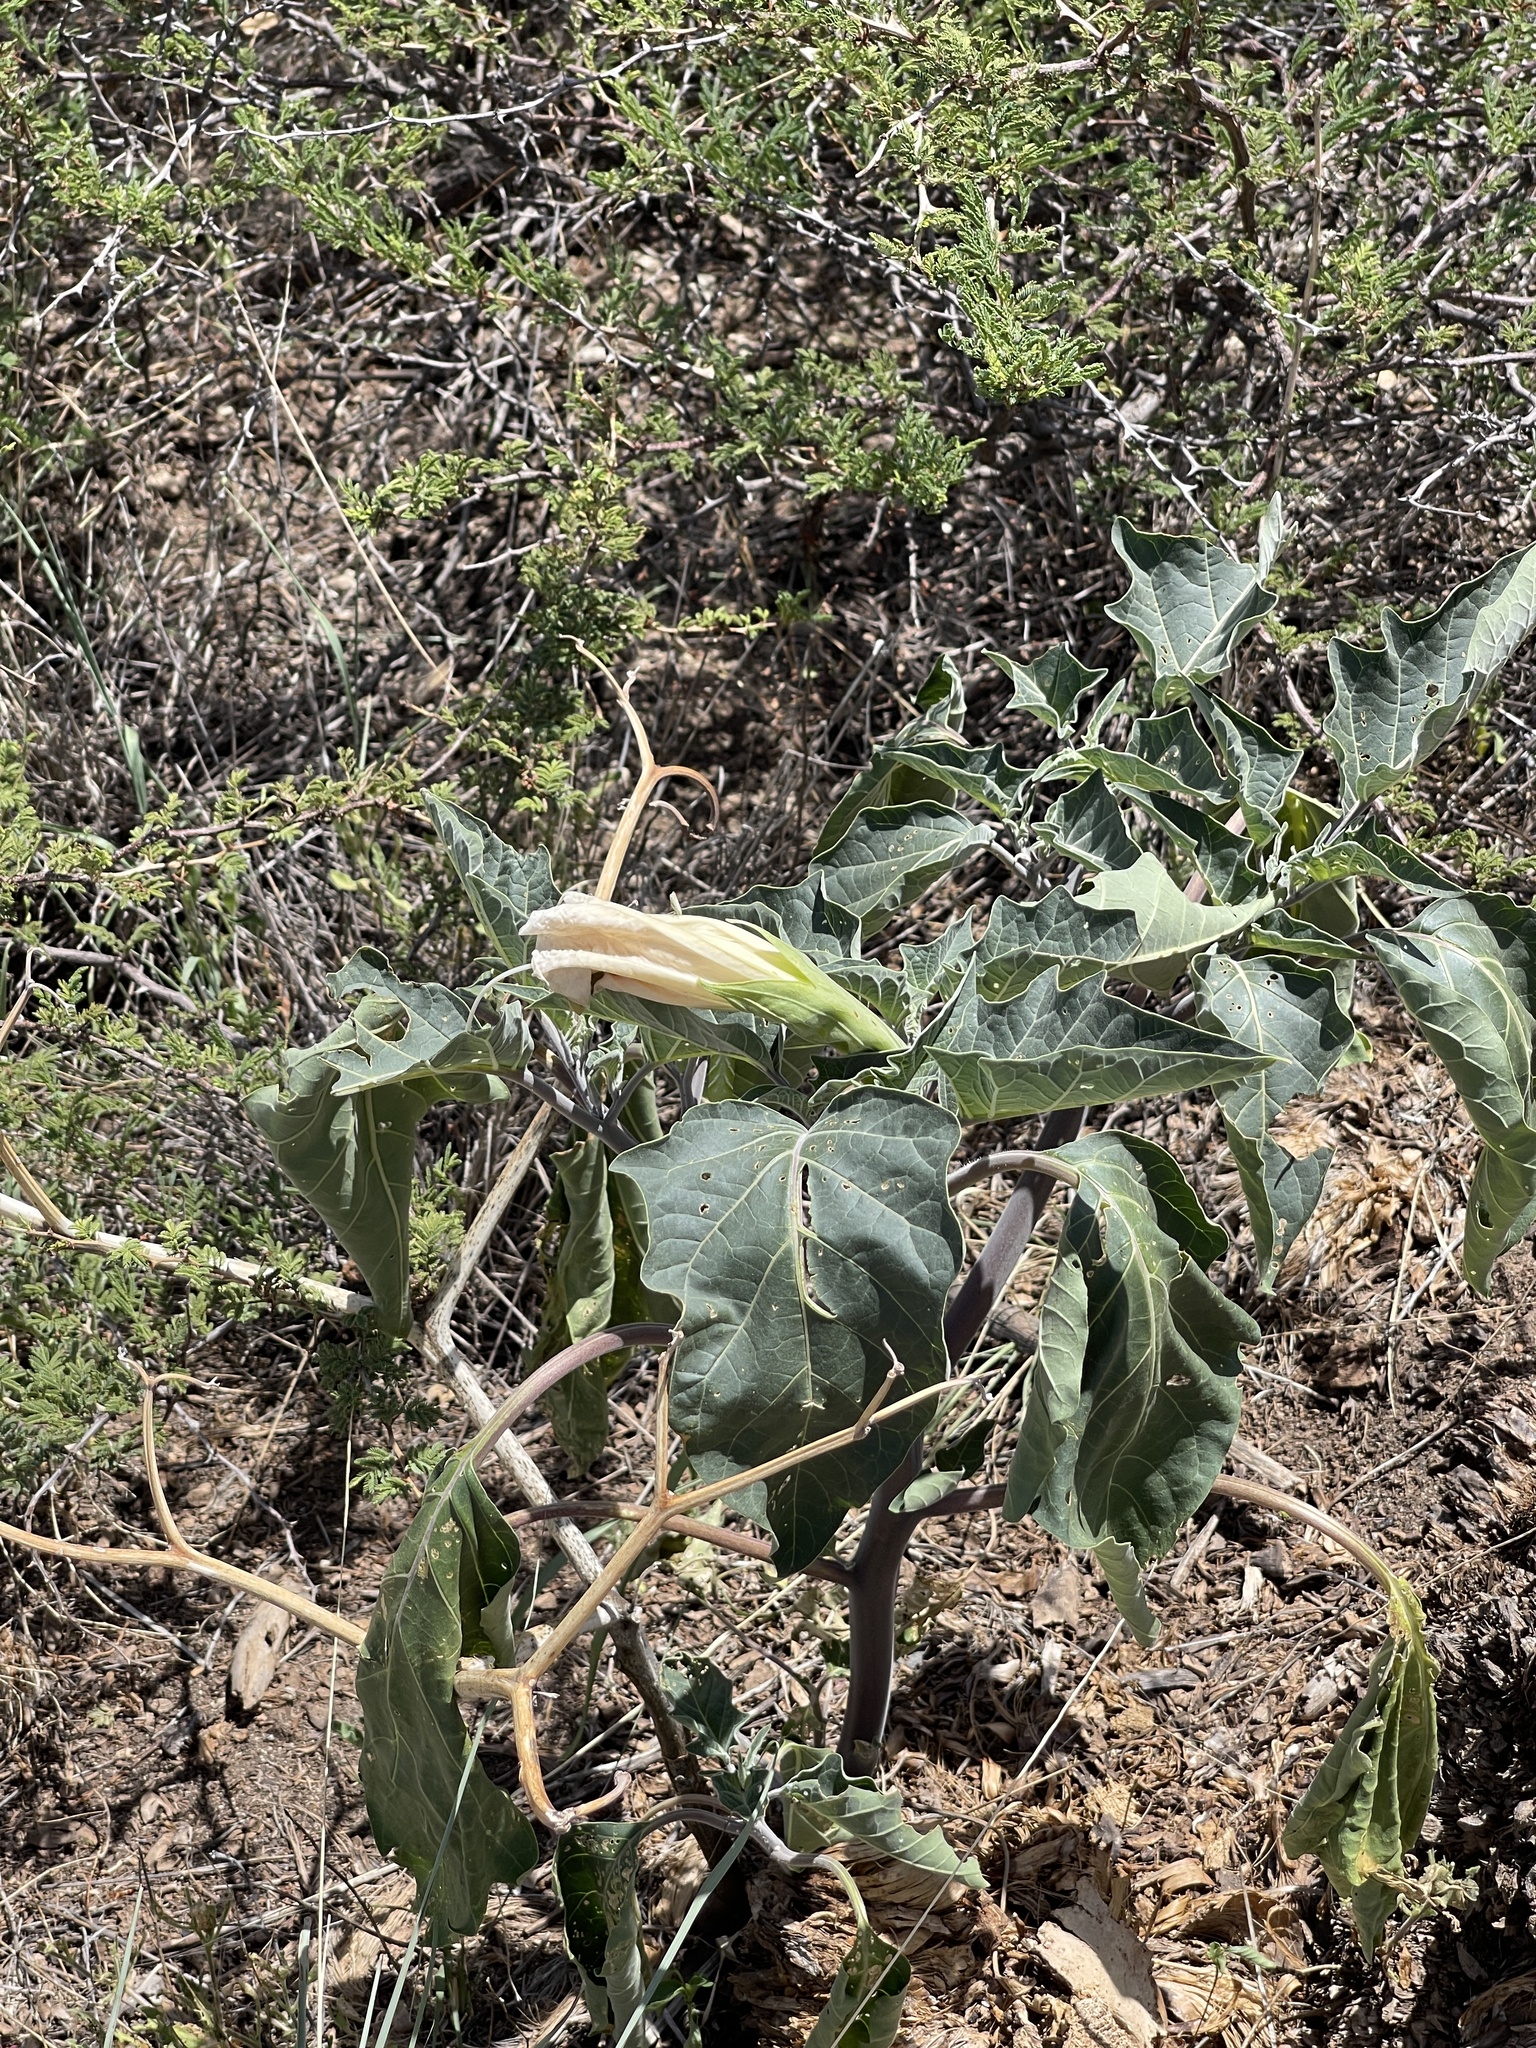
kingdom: Plantae
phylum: Tracheophyta
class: Magnoliopsida
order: Solanales
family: Solanaceae
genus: Datura
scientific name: Datura wrightii
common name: Sacred thorn-apple
